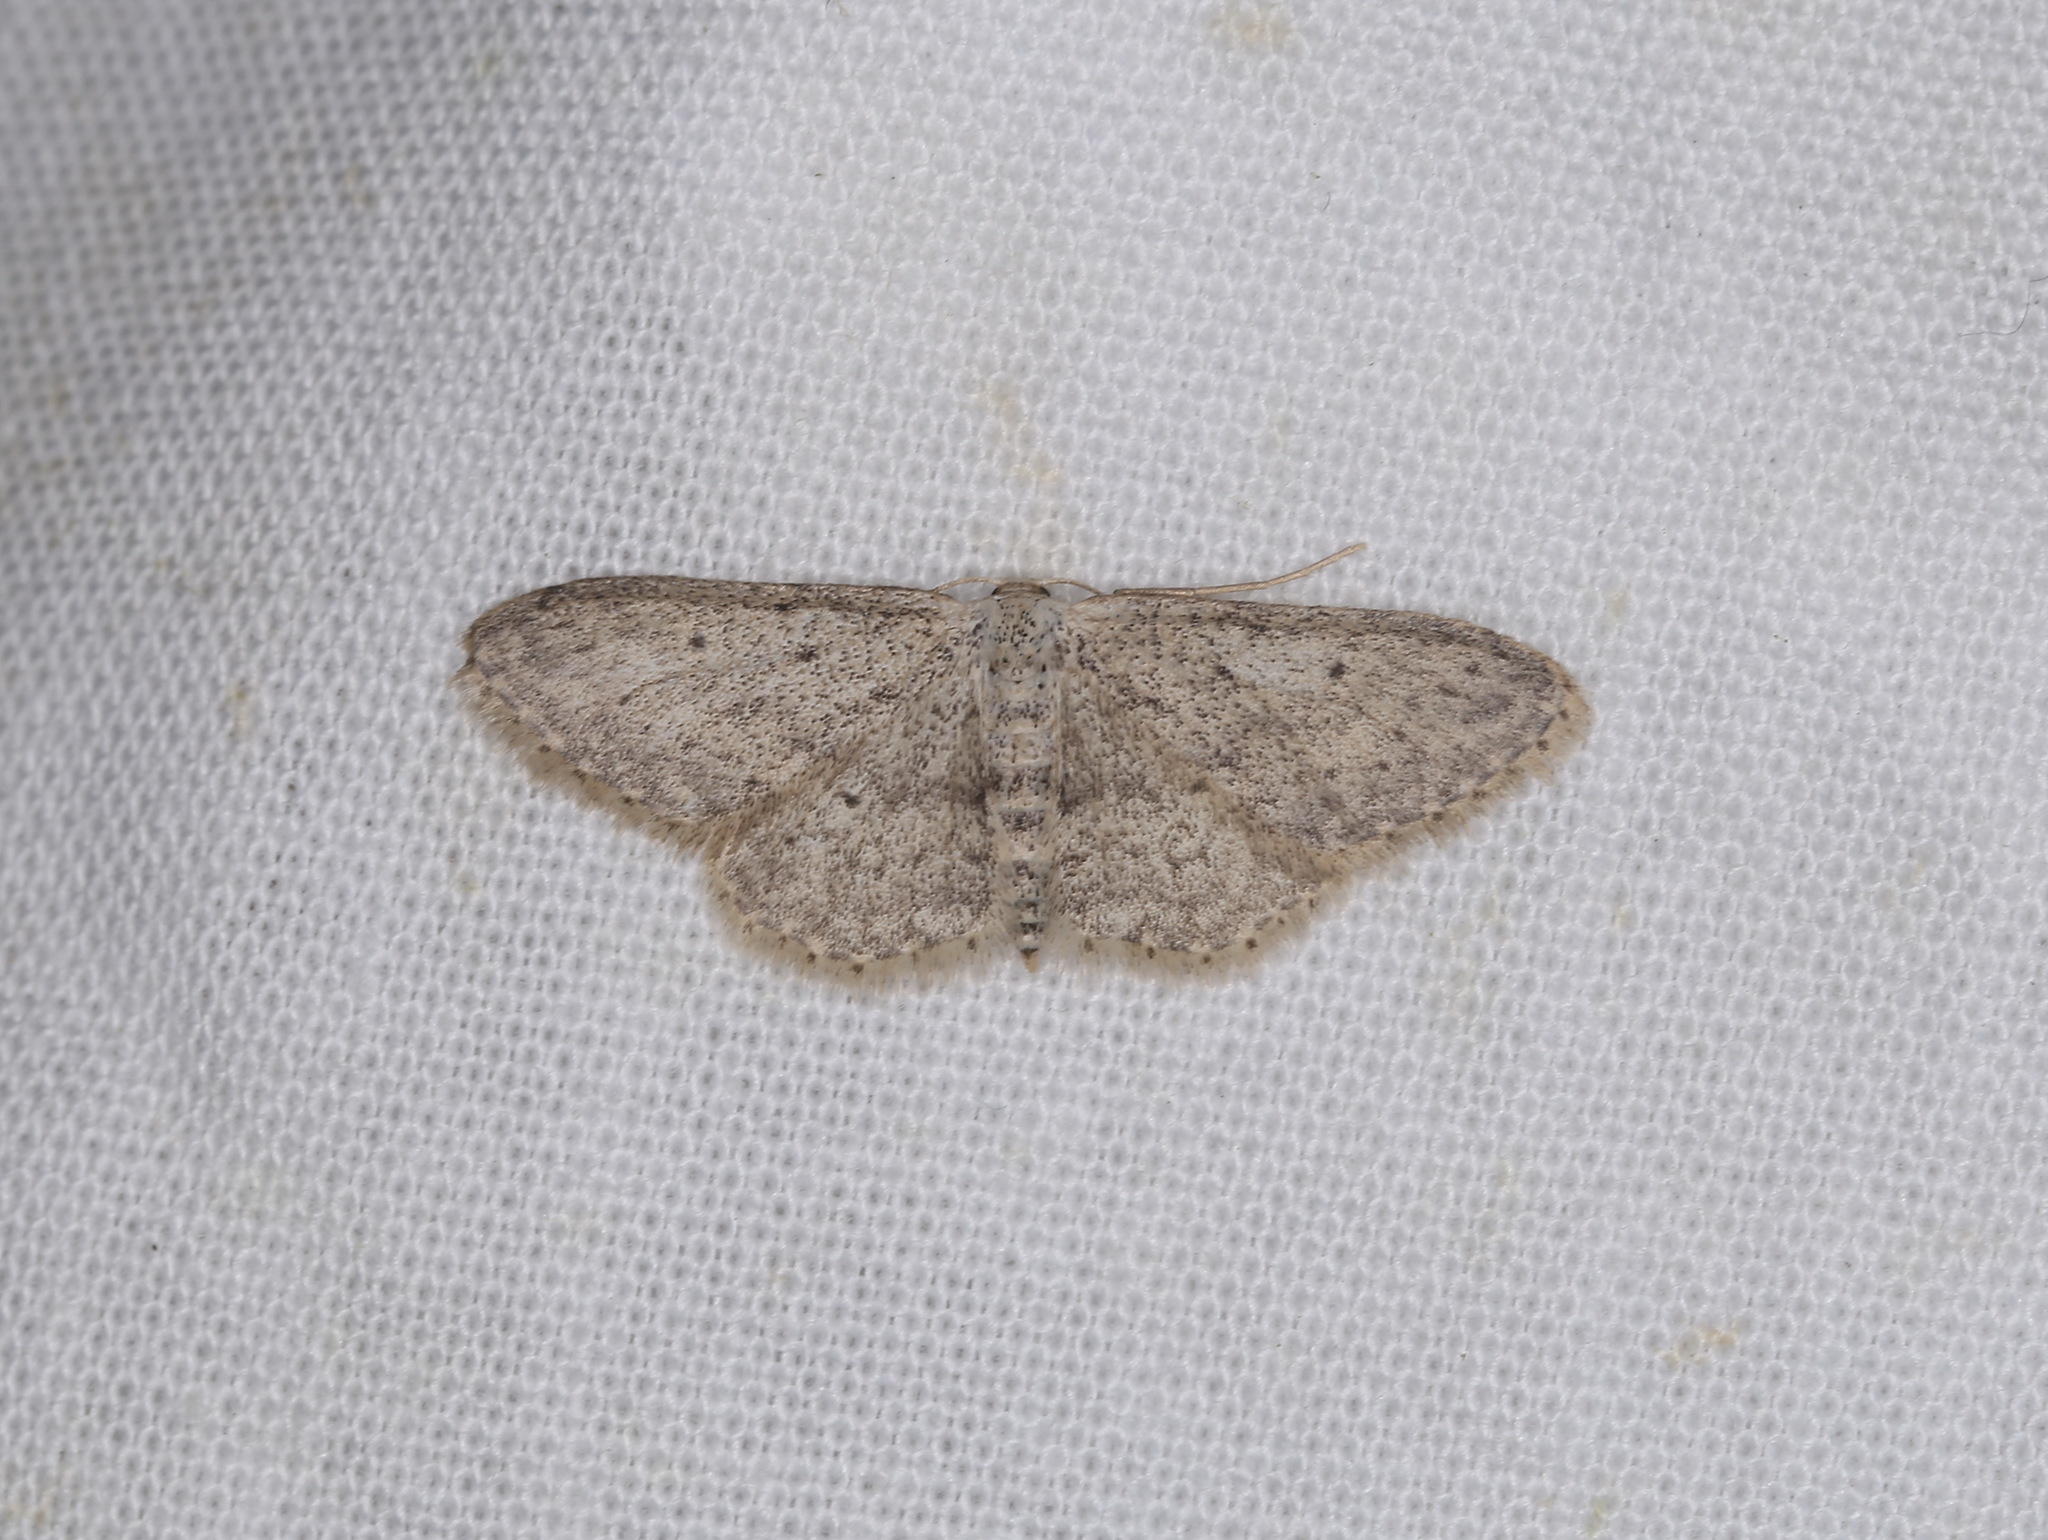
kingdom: Animalia
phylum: Arthropoda
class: Insecta
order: Lepidoptera
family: Geometridae
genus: Idaea
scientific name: Idaea seriata
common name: Small dusty wave
